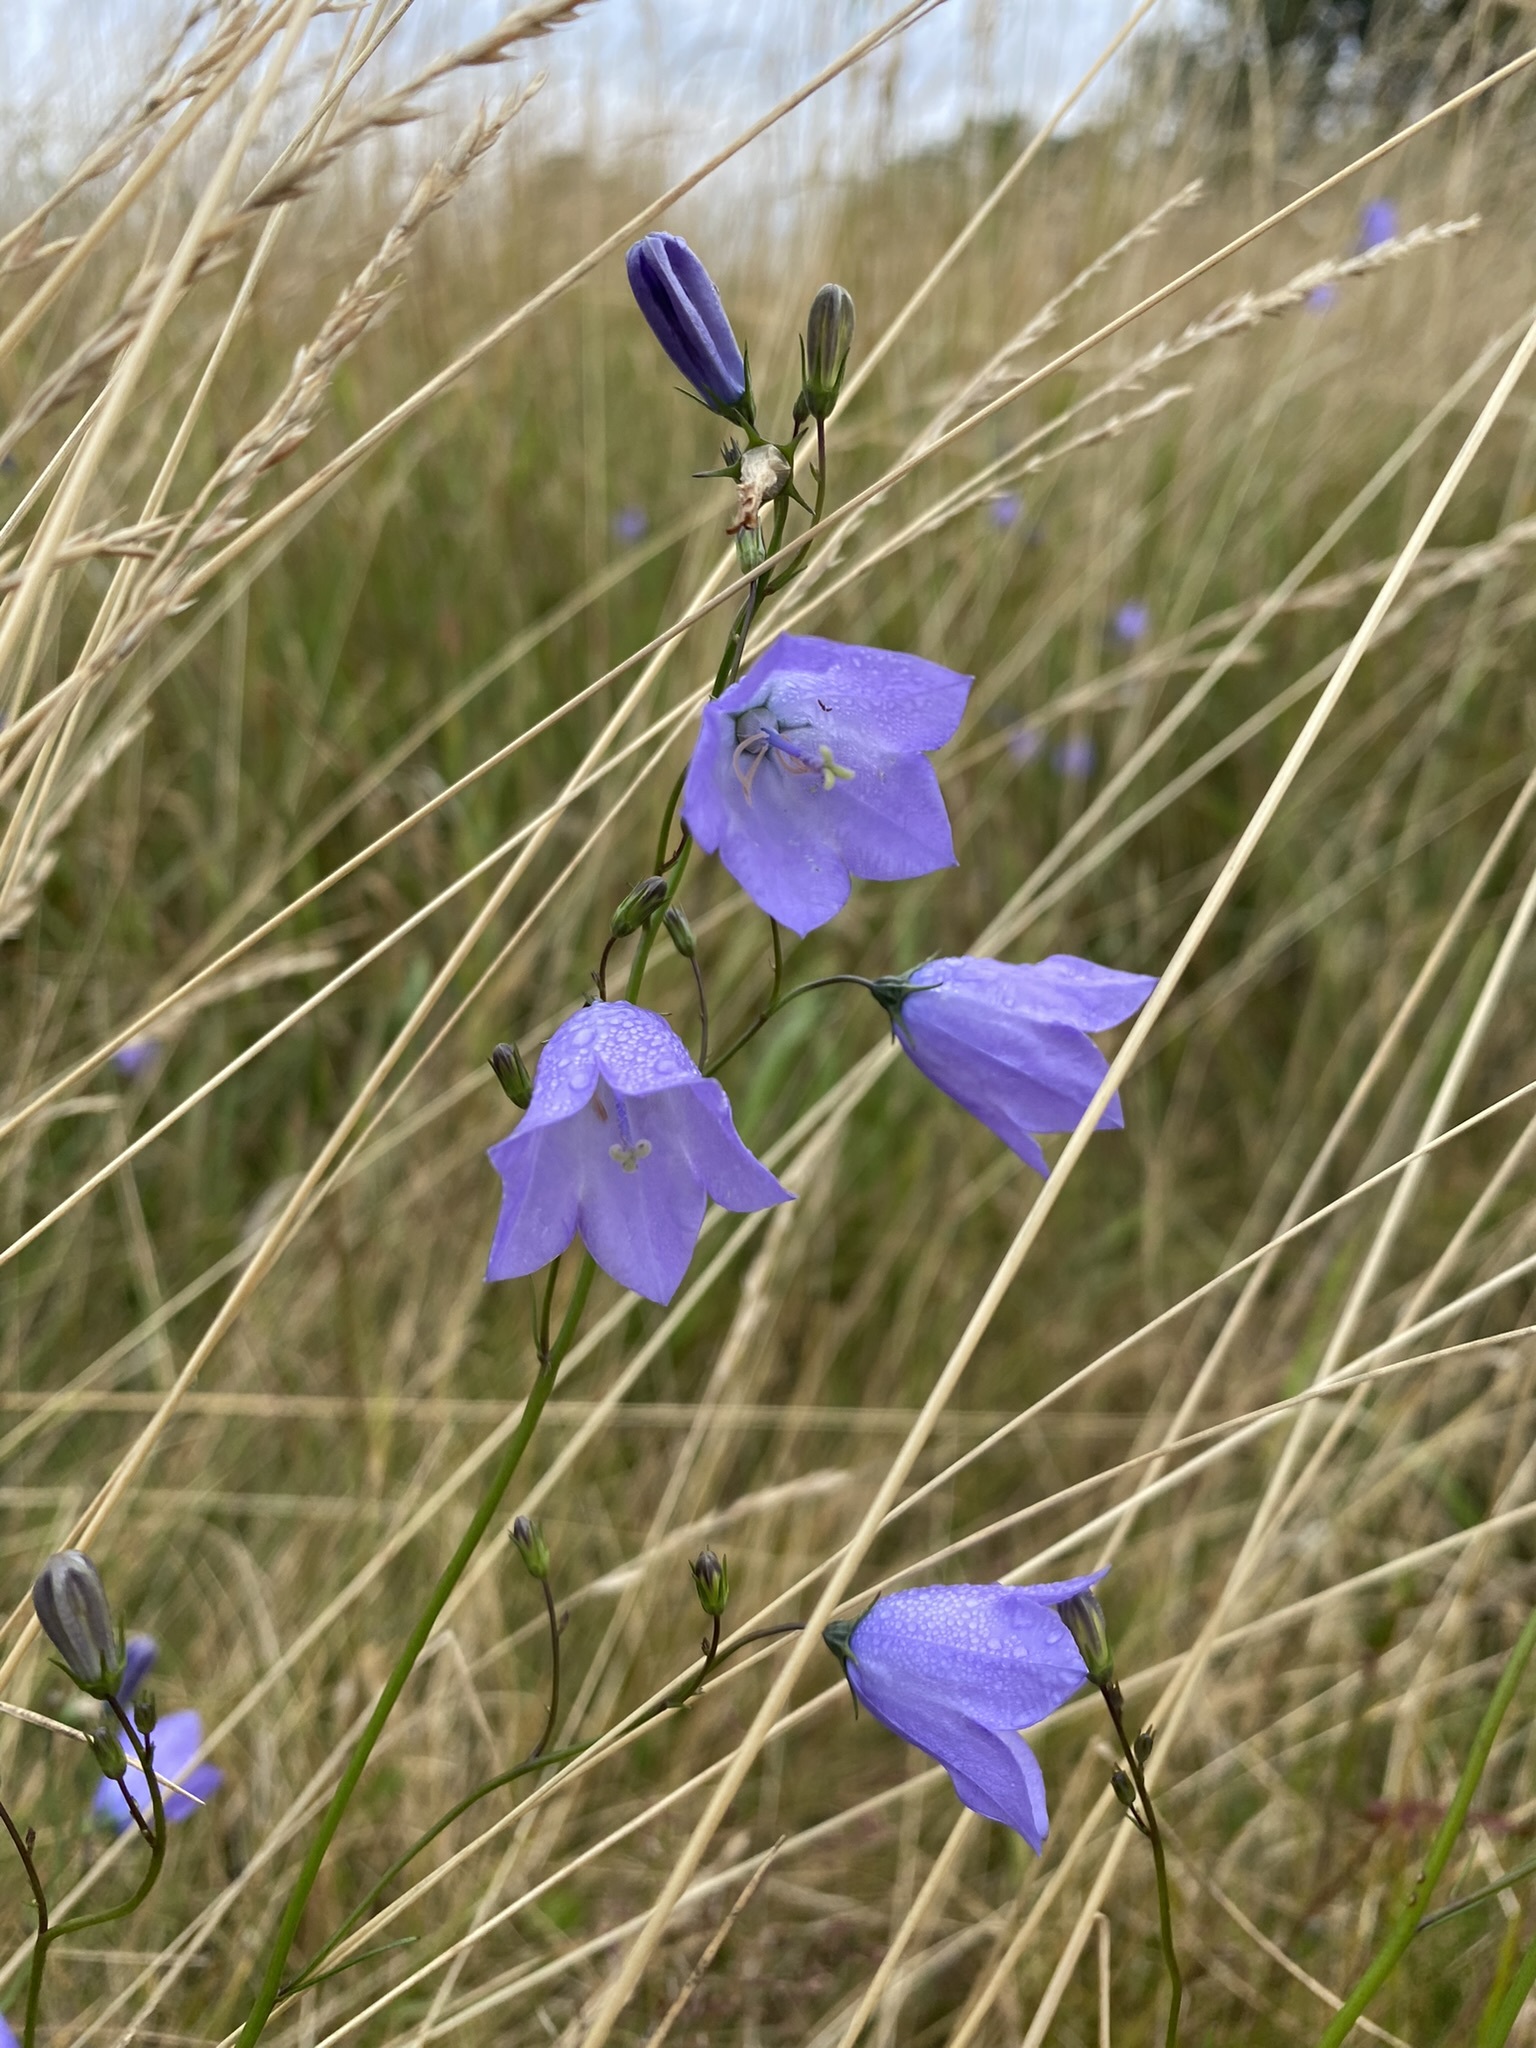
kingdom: Plantae
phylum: Tracheophyta
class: Magnoliopsida
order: Asterales
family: Campanulaceae
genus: Campanula
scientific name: Campanula rotundifolia
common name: Harebell
